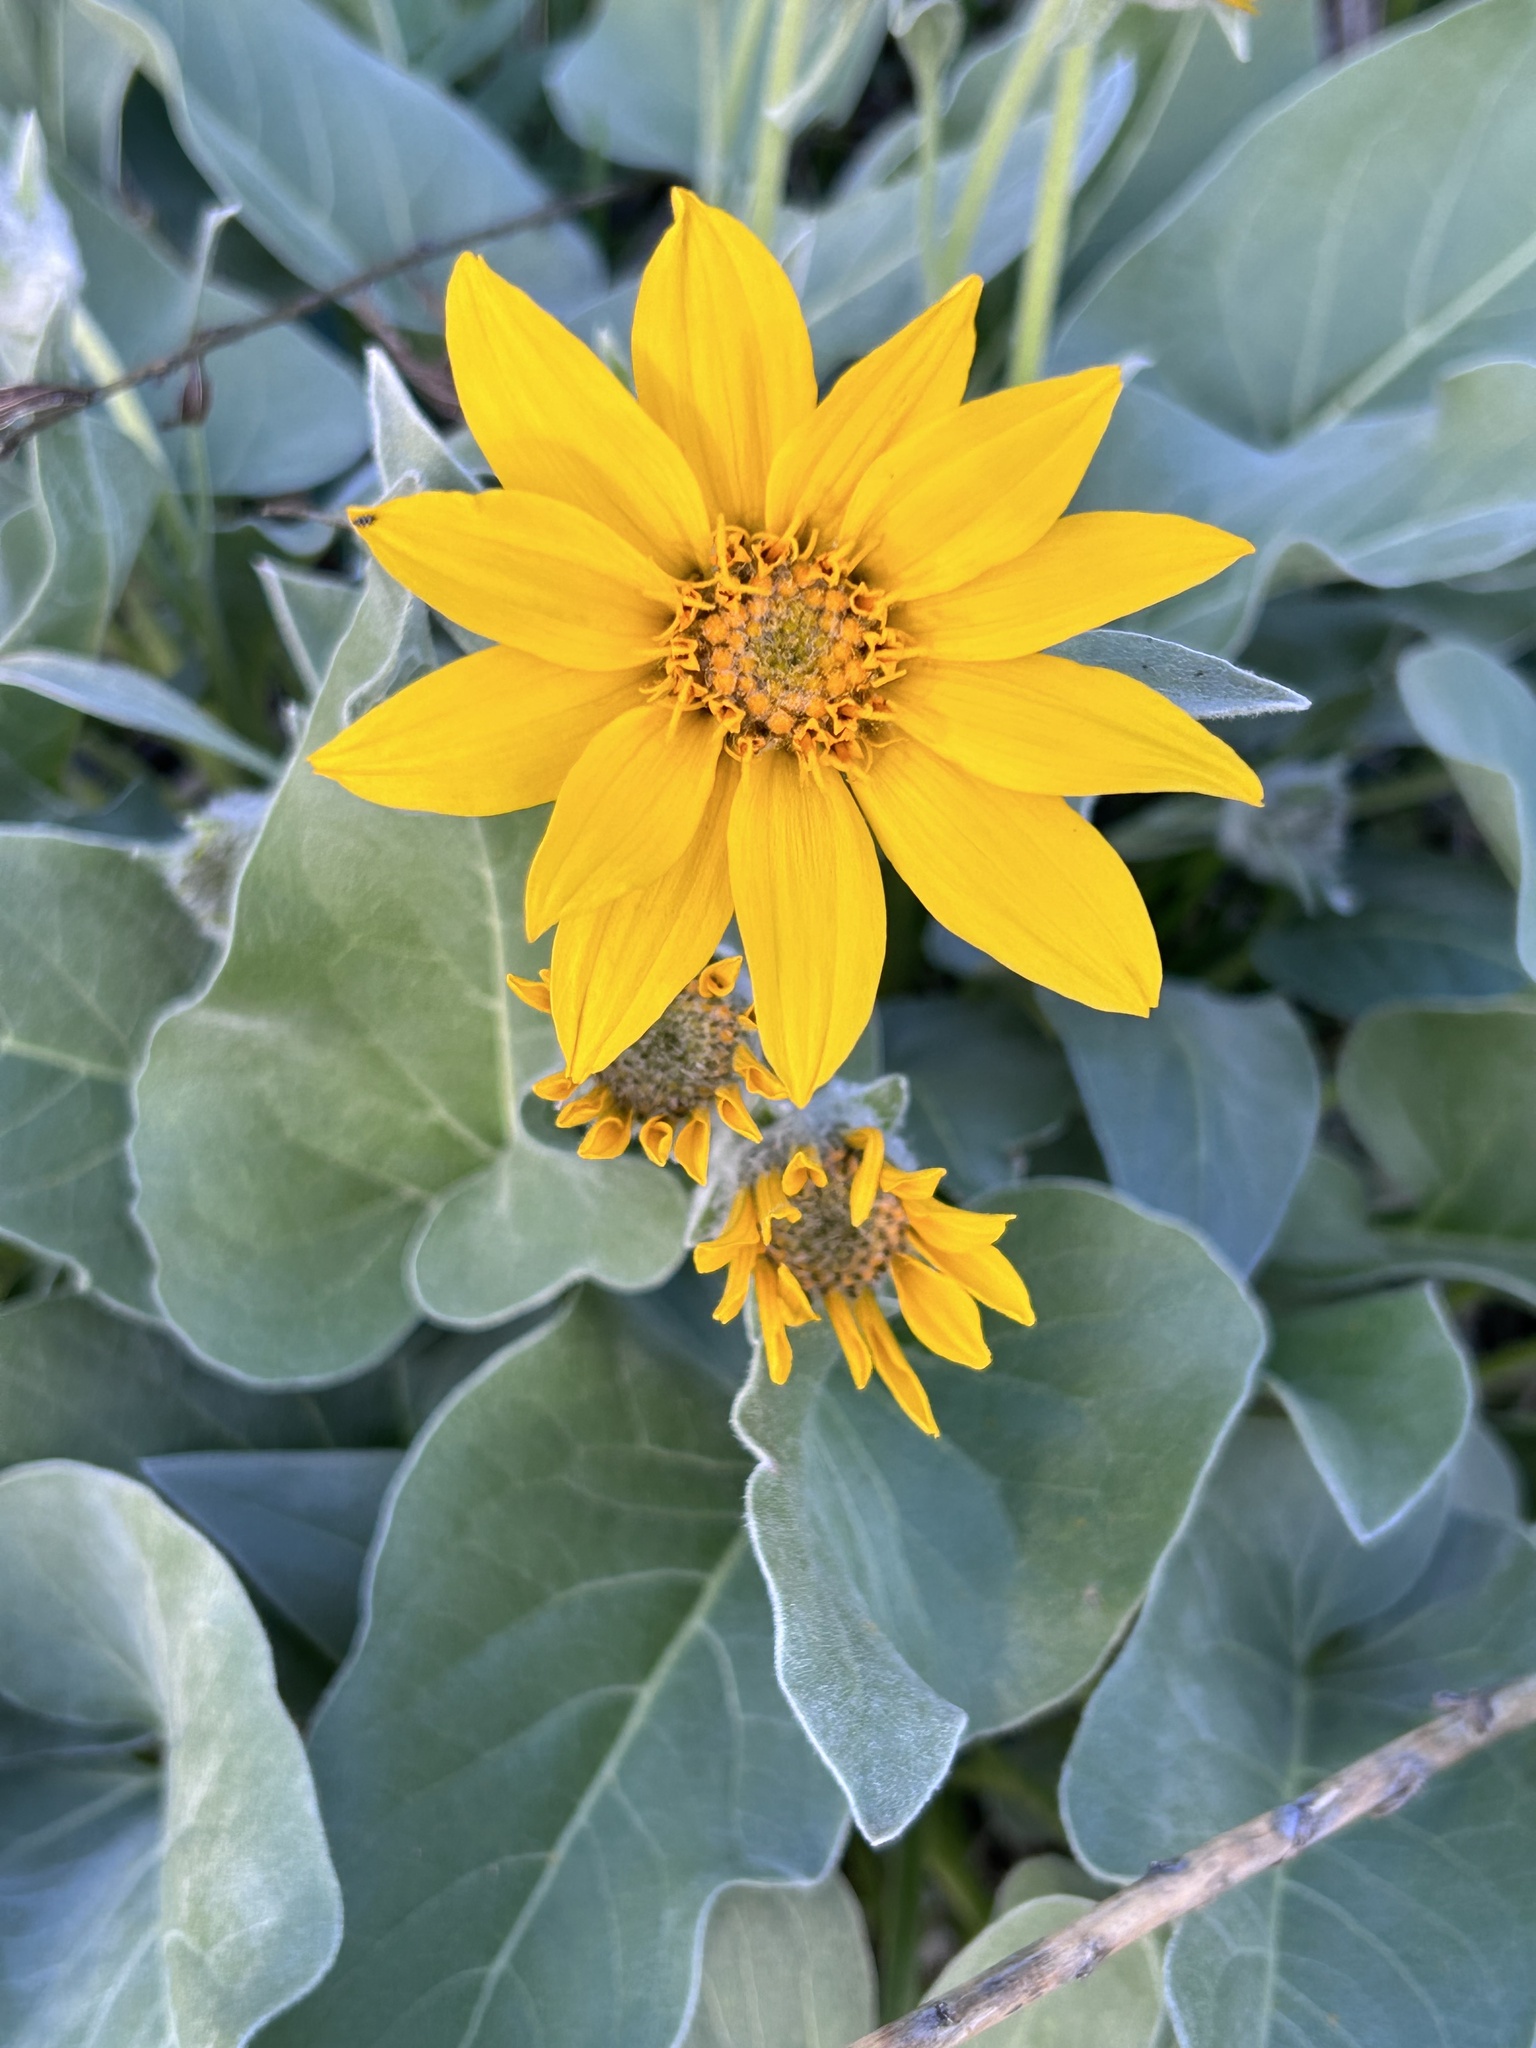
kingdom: Plantae
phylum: Tracheophyta
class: Magnoliopsida
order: Asterales
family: Asteraceae
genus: Wyethia
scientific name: Wyethia sagittata
